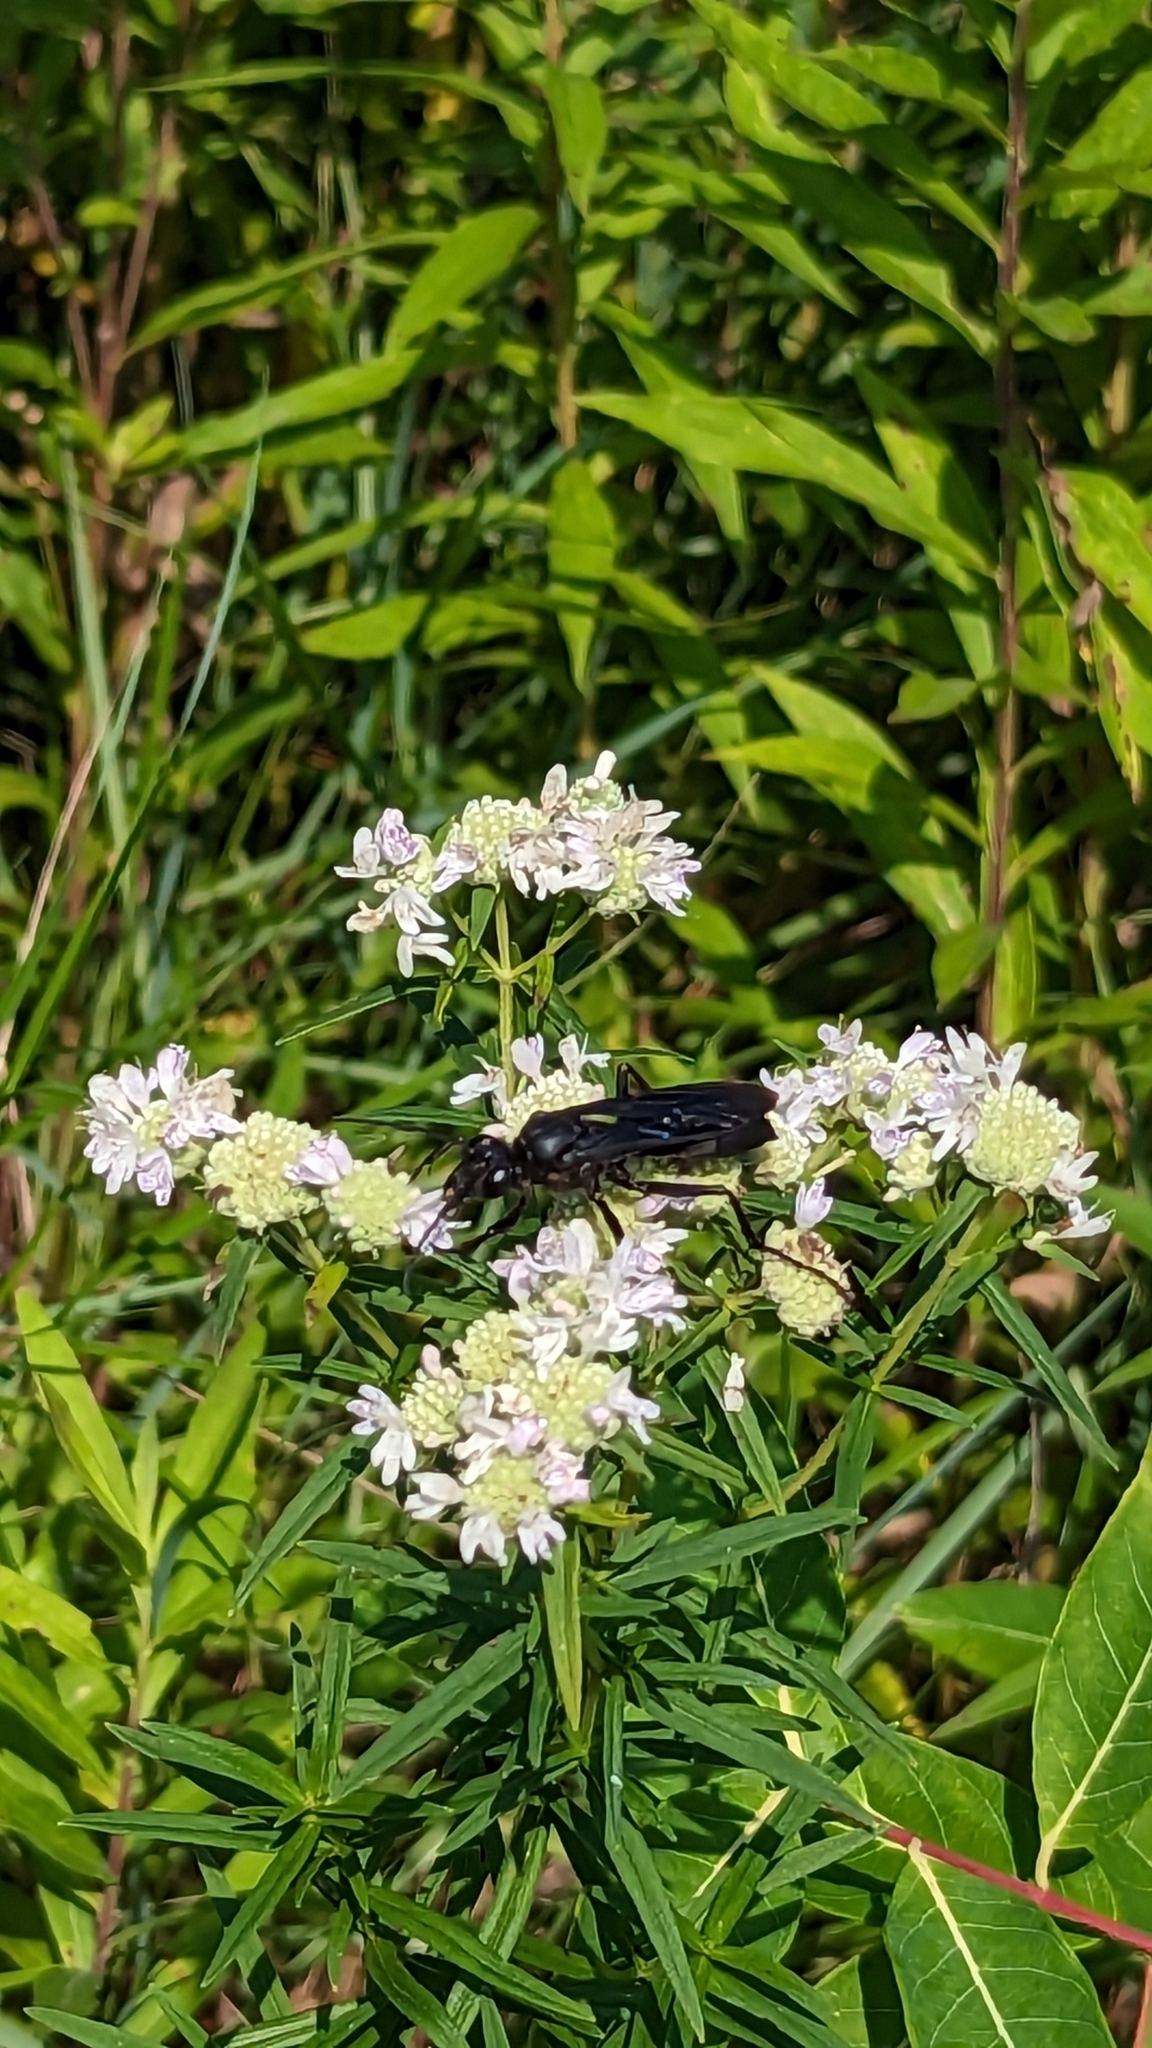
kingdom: Animalia
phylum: Arthropoda
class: Insecta
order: Hymenoptera
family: Sphecidae
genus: Sphex
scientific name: Sphex pensylvanicus
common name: Great black digger wasp
